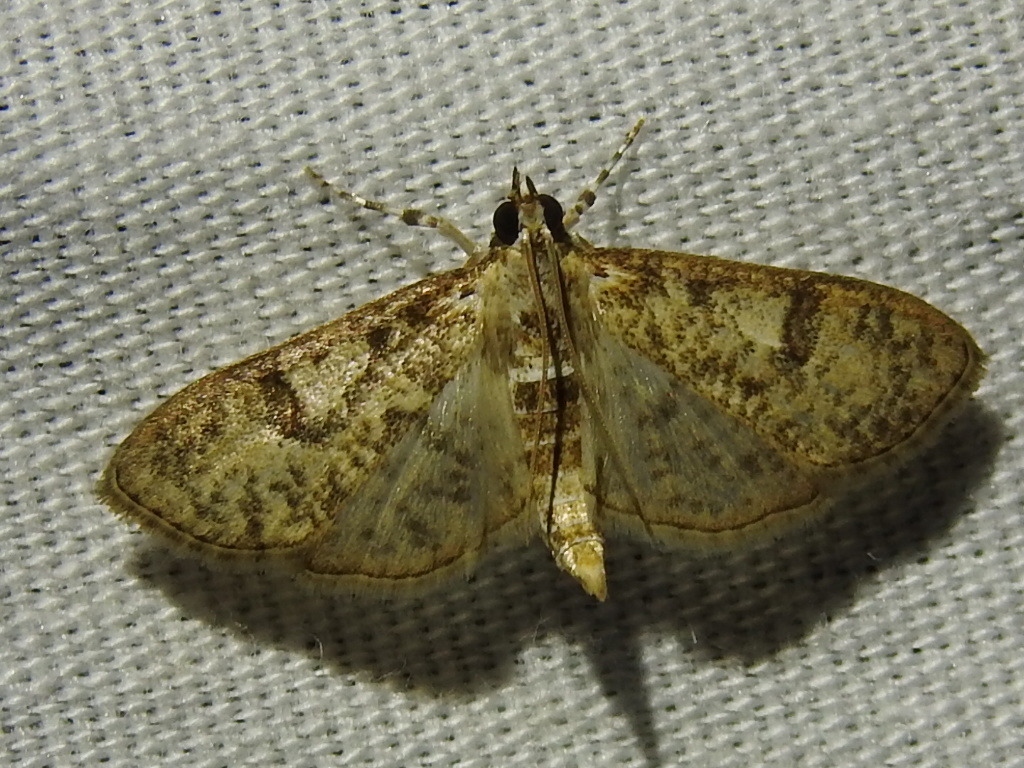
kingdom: Animalia
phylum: Arthropoda
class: Insecta
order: Lepidoptera
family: Crambidae
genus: Palpita
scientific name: Palpita freemanalis
